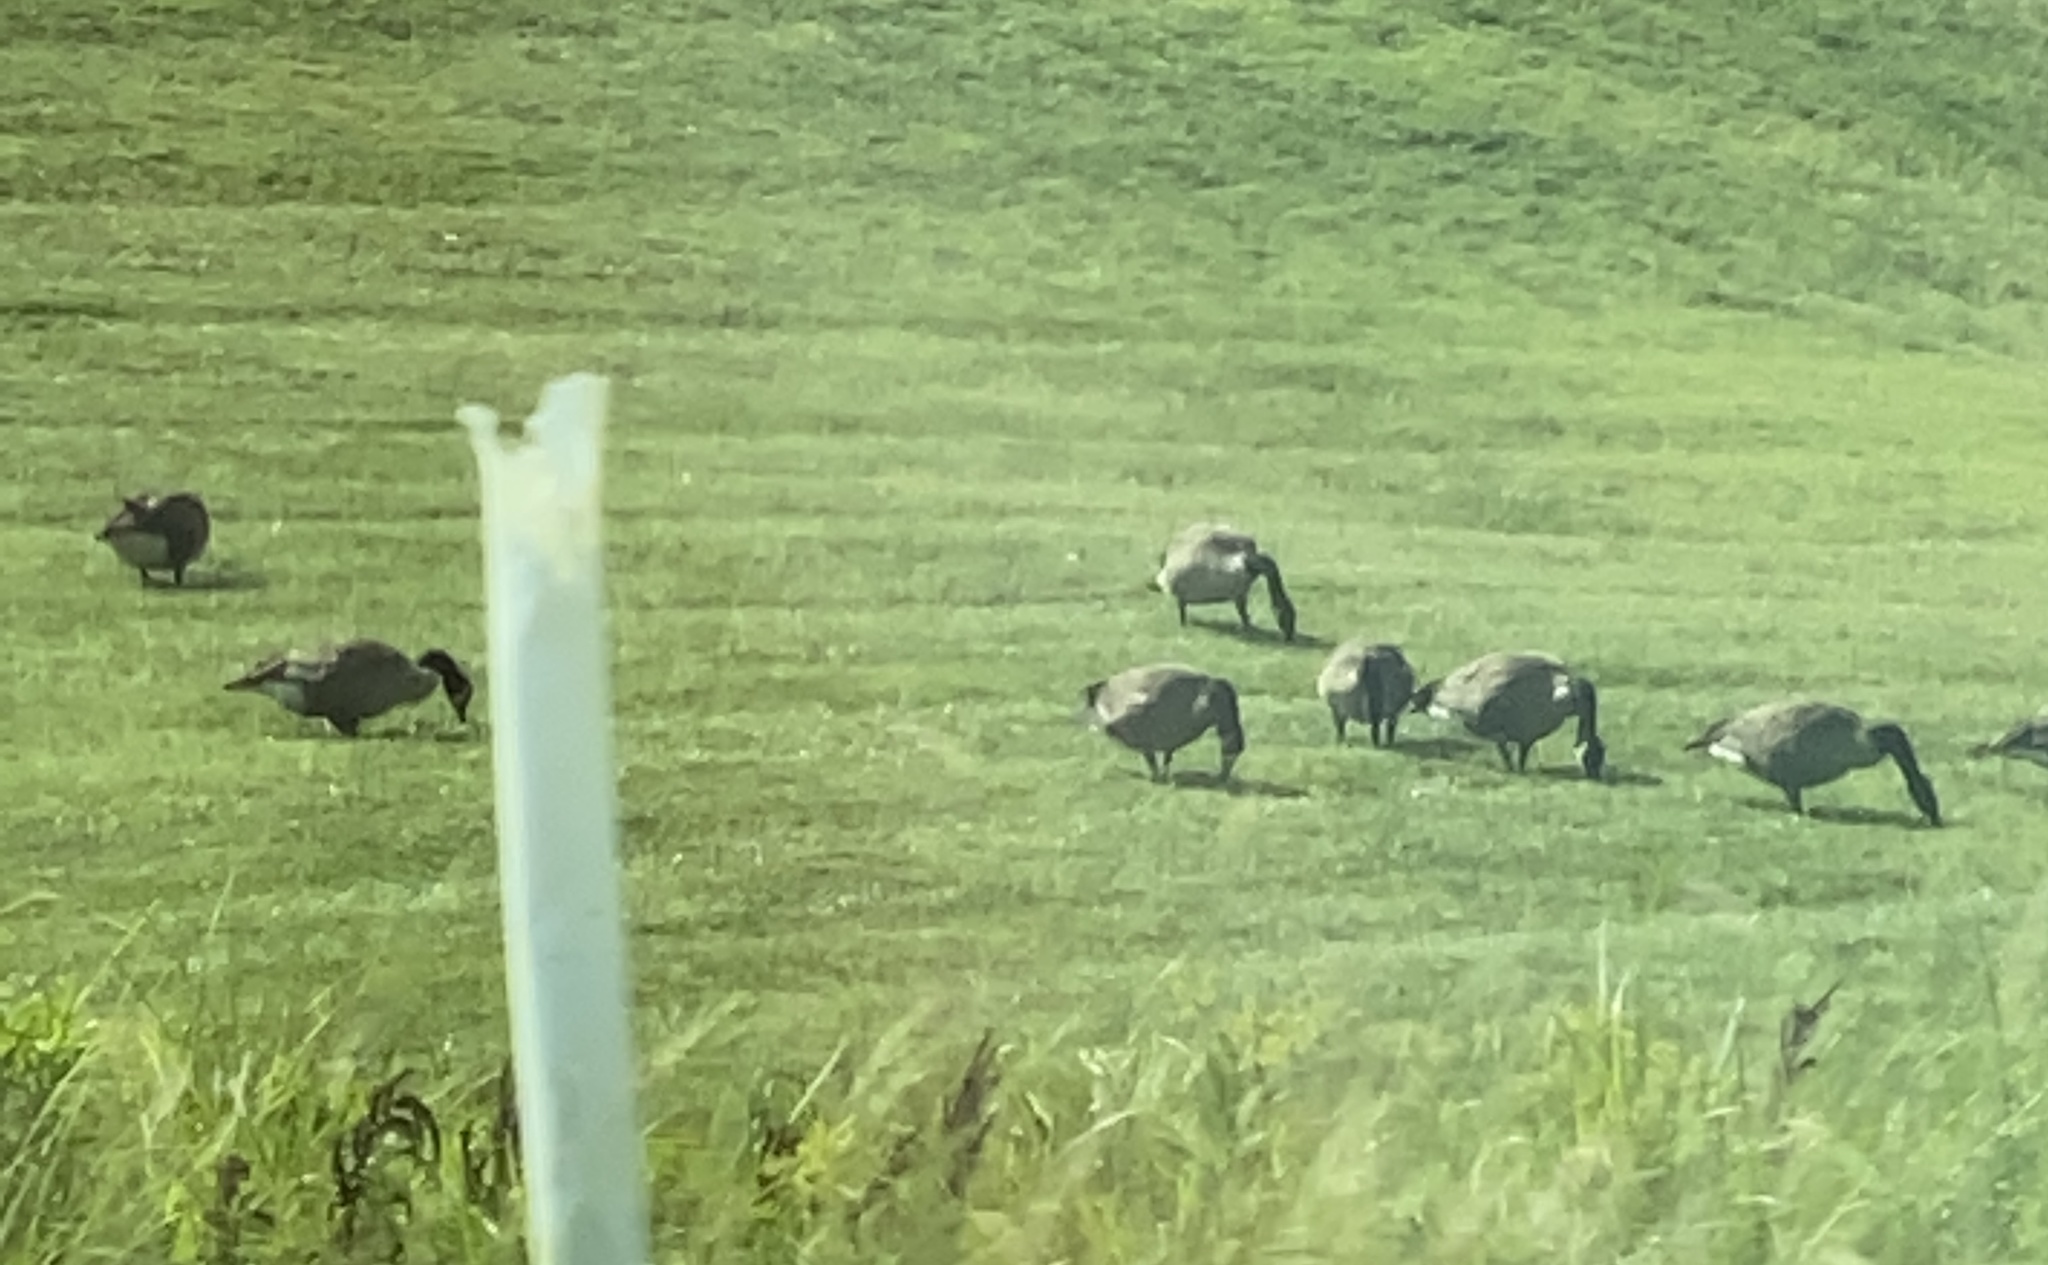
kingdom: Animalia
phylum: Chordata
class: Aves
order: Anseriformes
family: Anatidae
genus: Branta
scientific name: Branta canadensis
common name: Canada goose
